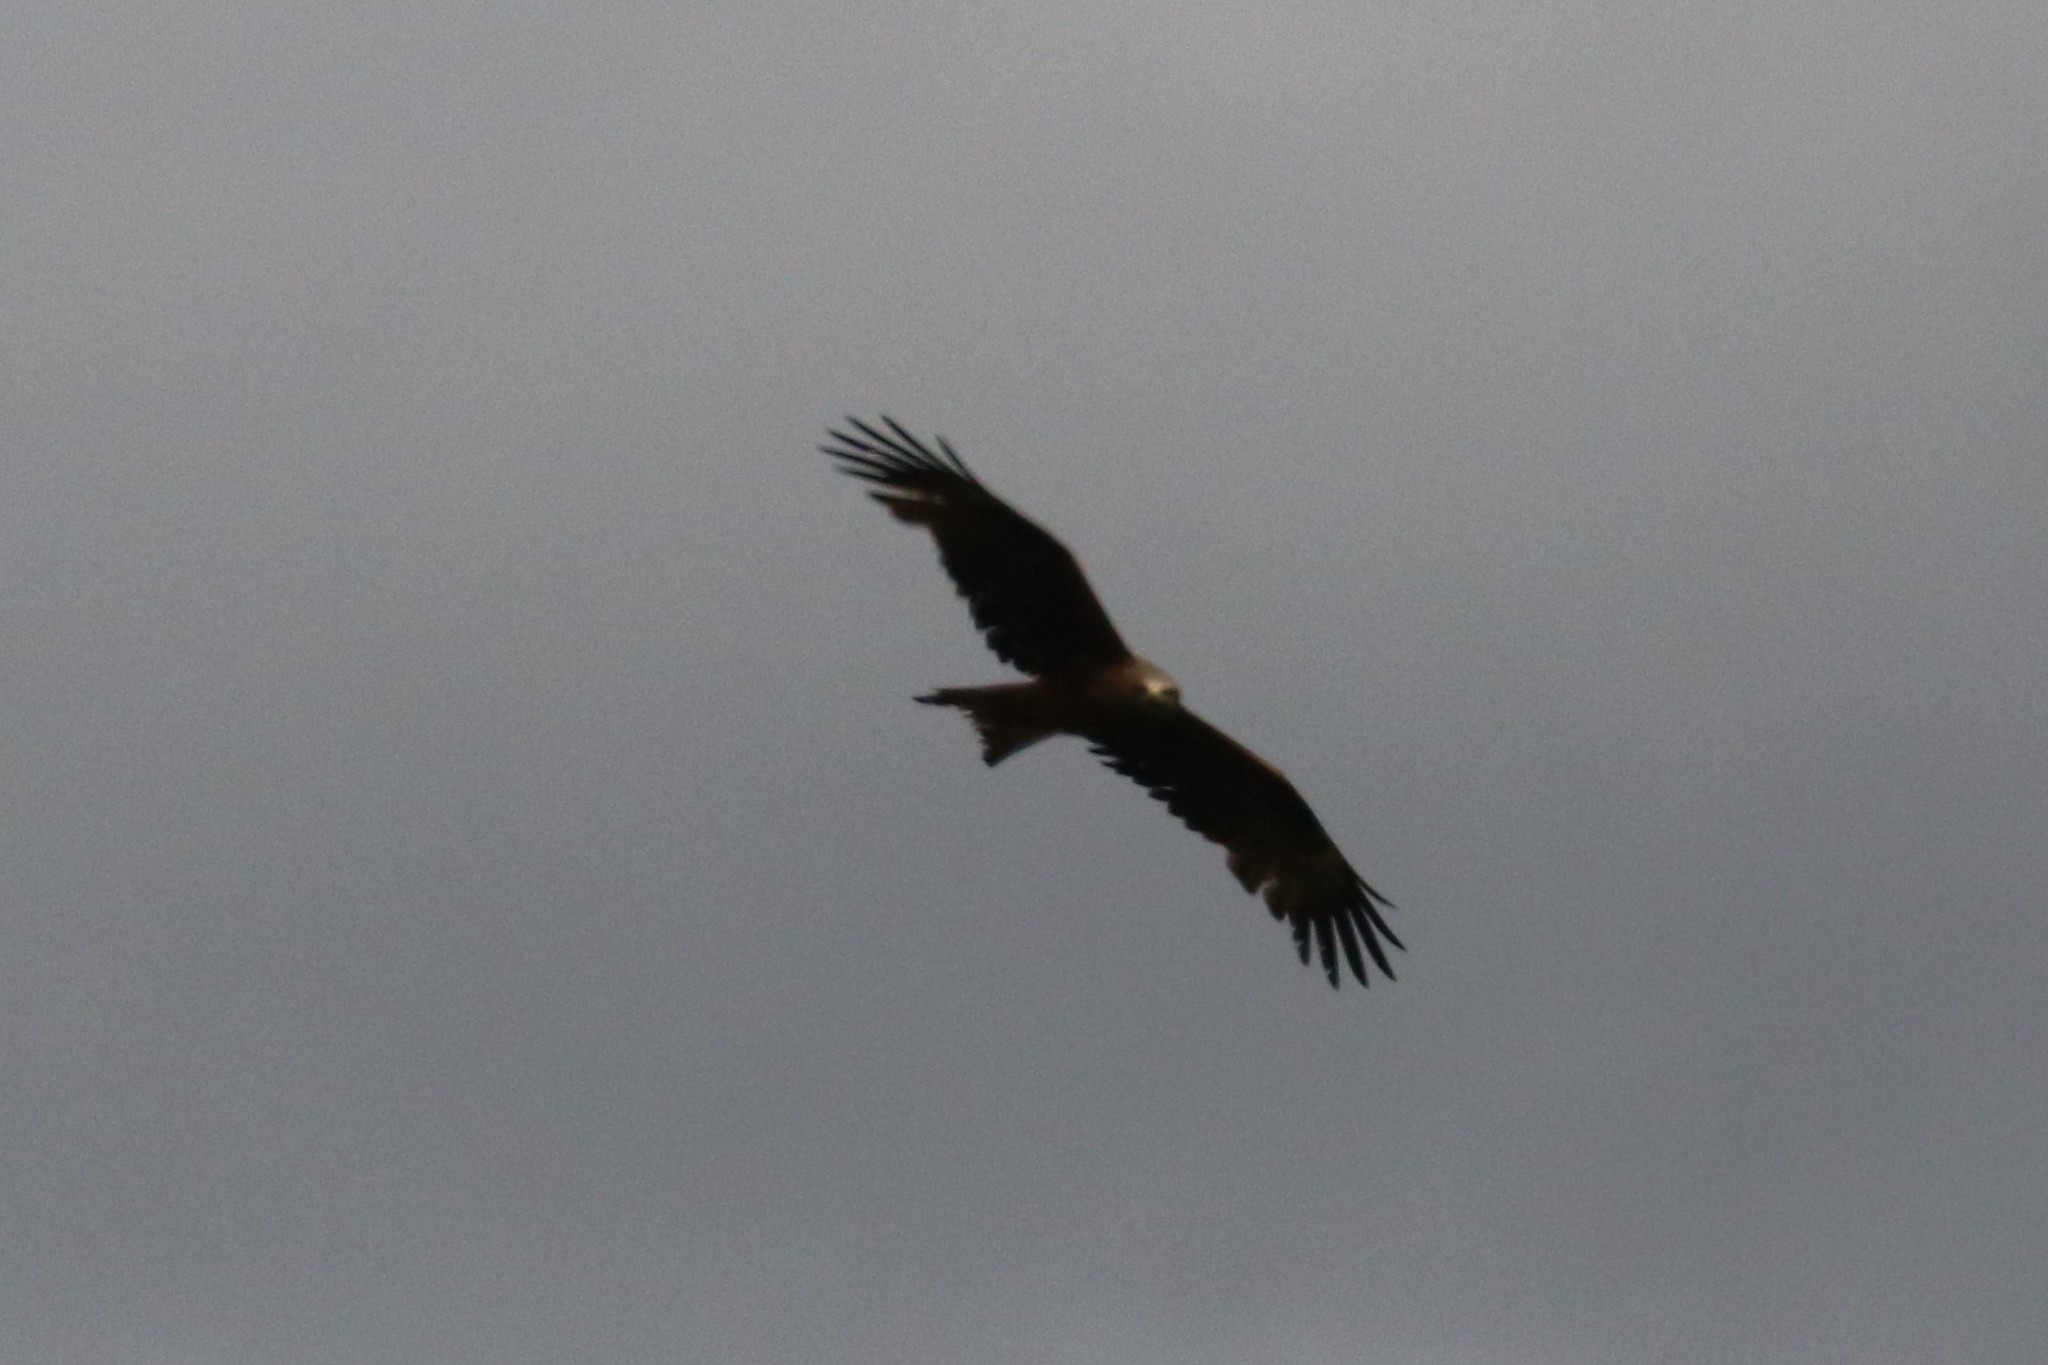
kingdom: Animalia
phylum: Chordata
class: Aves
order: Accipitriformes
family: Accipitridae
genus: Milvus
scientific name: Milvus migrans
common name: Black kite
